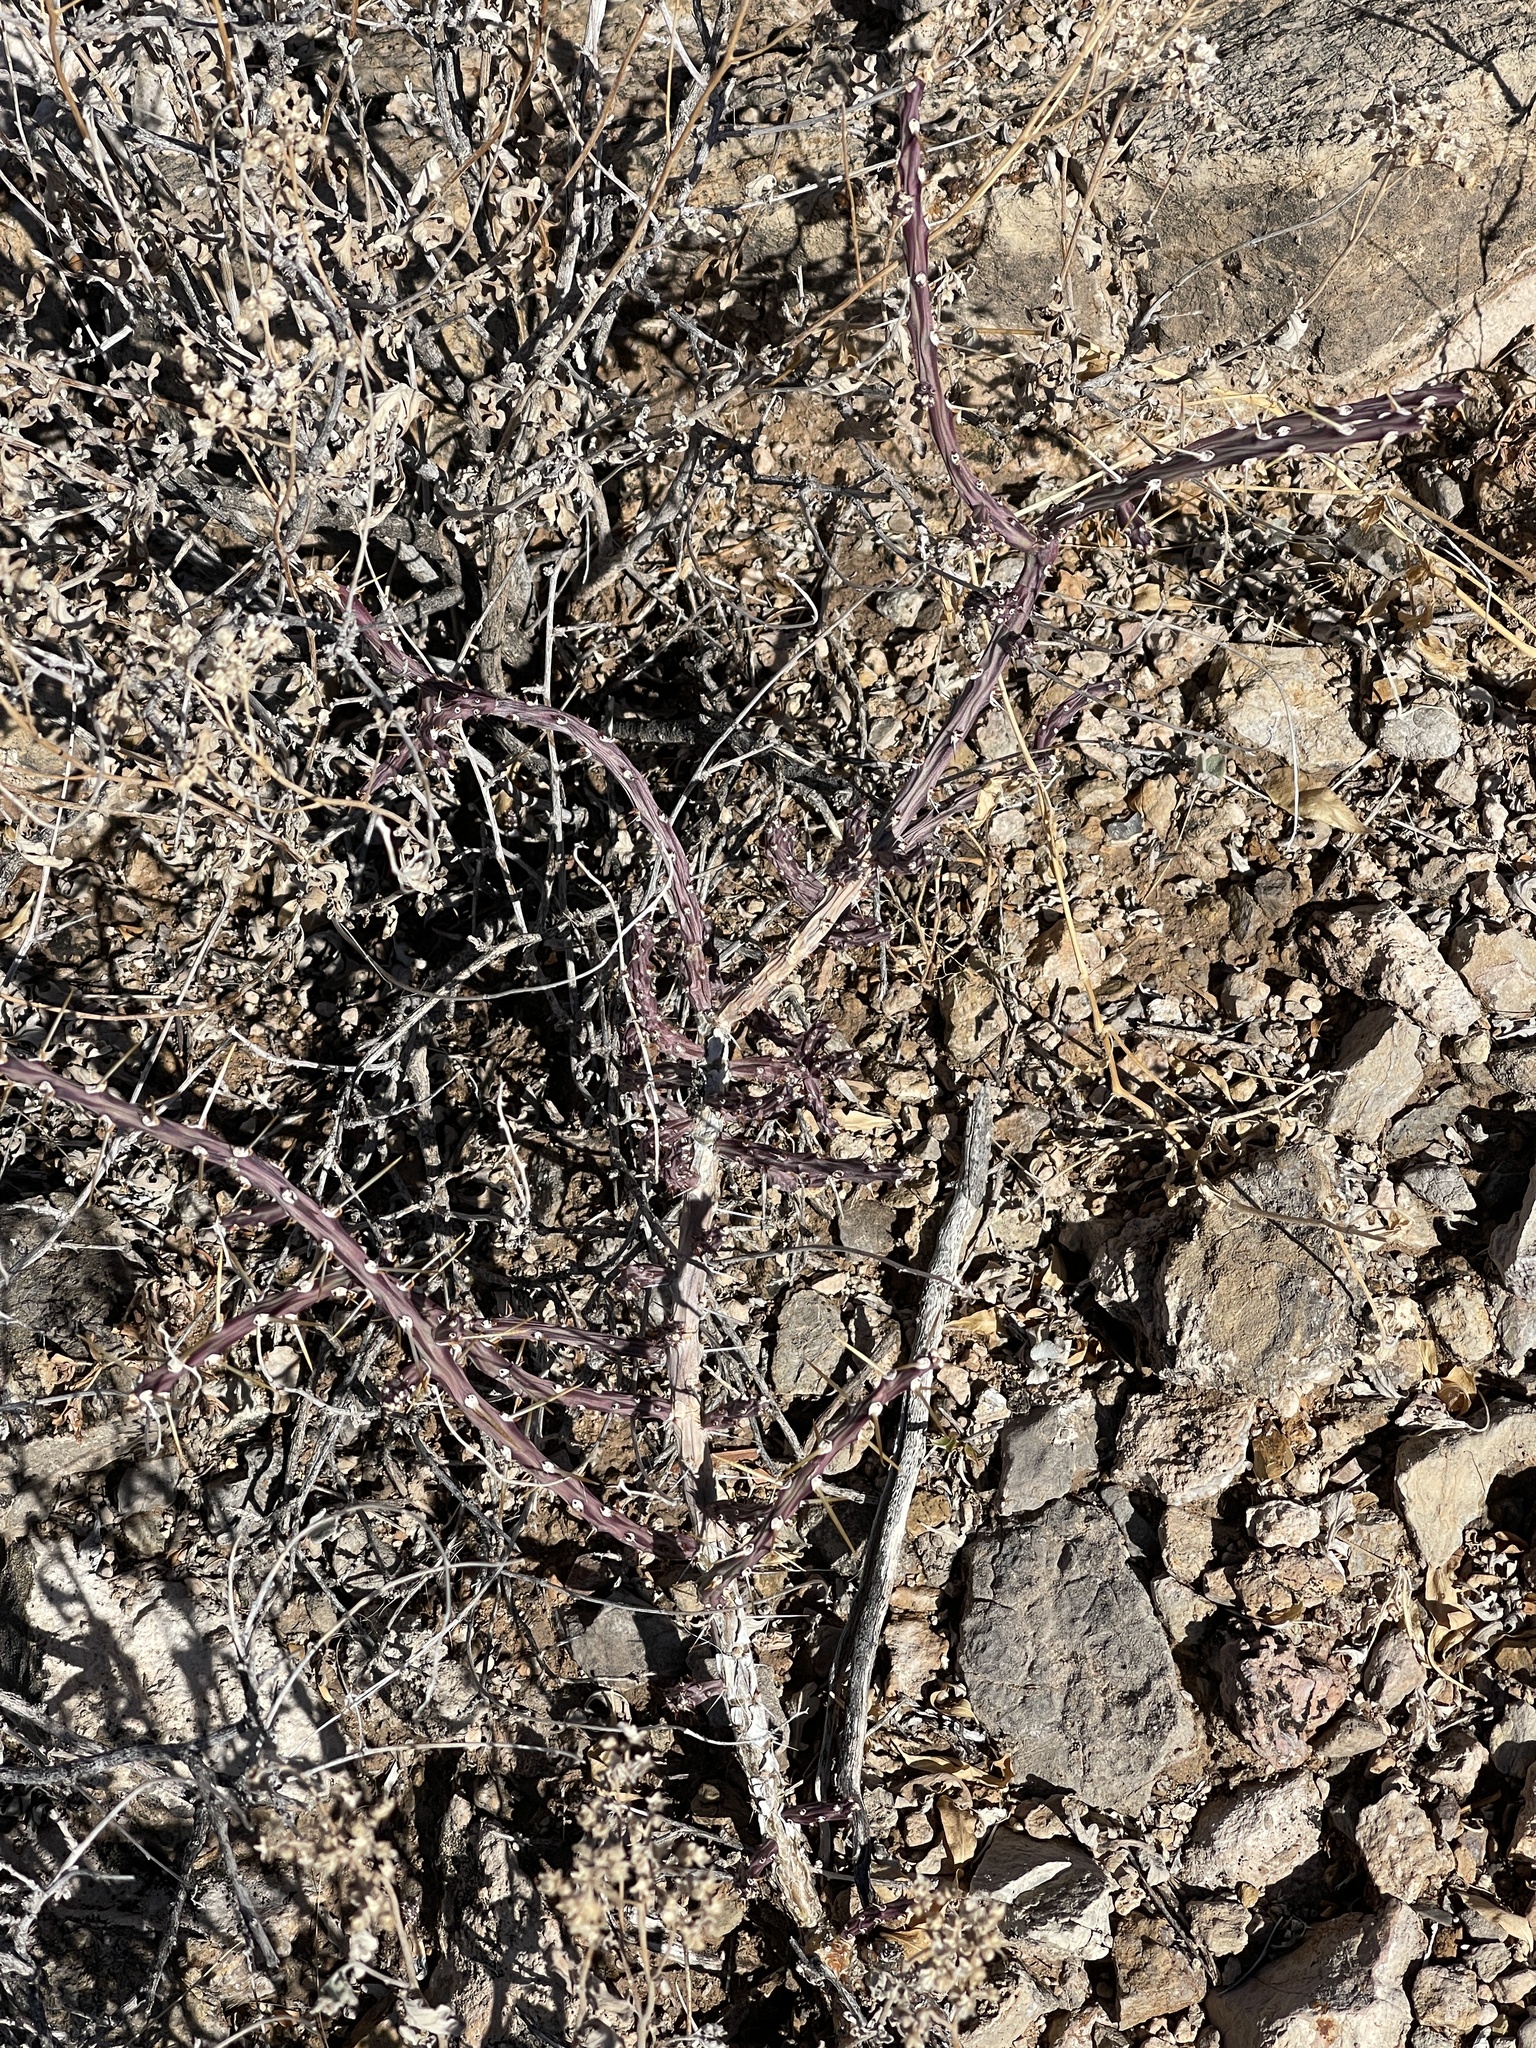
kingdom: Plantae
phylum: Tracheophyta
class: Magnoliopsida
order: Caryophyllales
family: Cactaceae
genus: Cylindropuntia
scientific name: Cylindropuntia leptocaulis
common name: Christmas cactus
